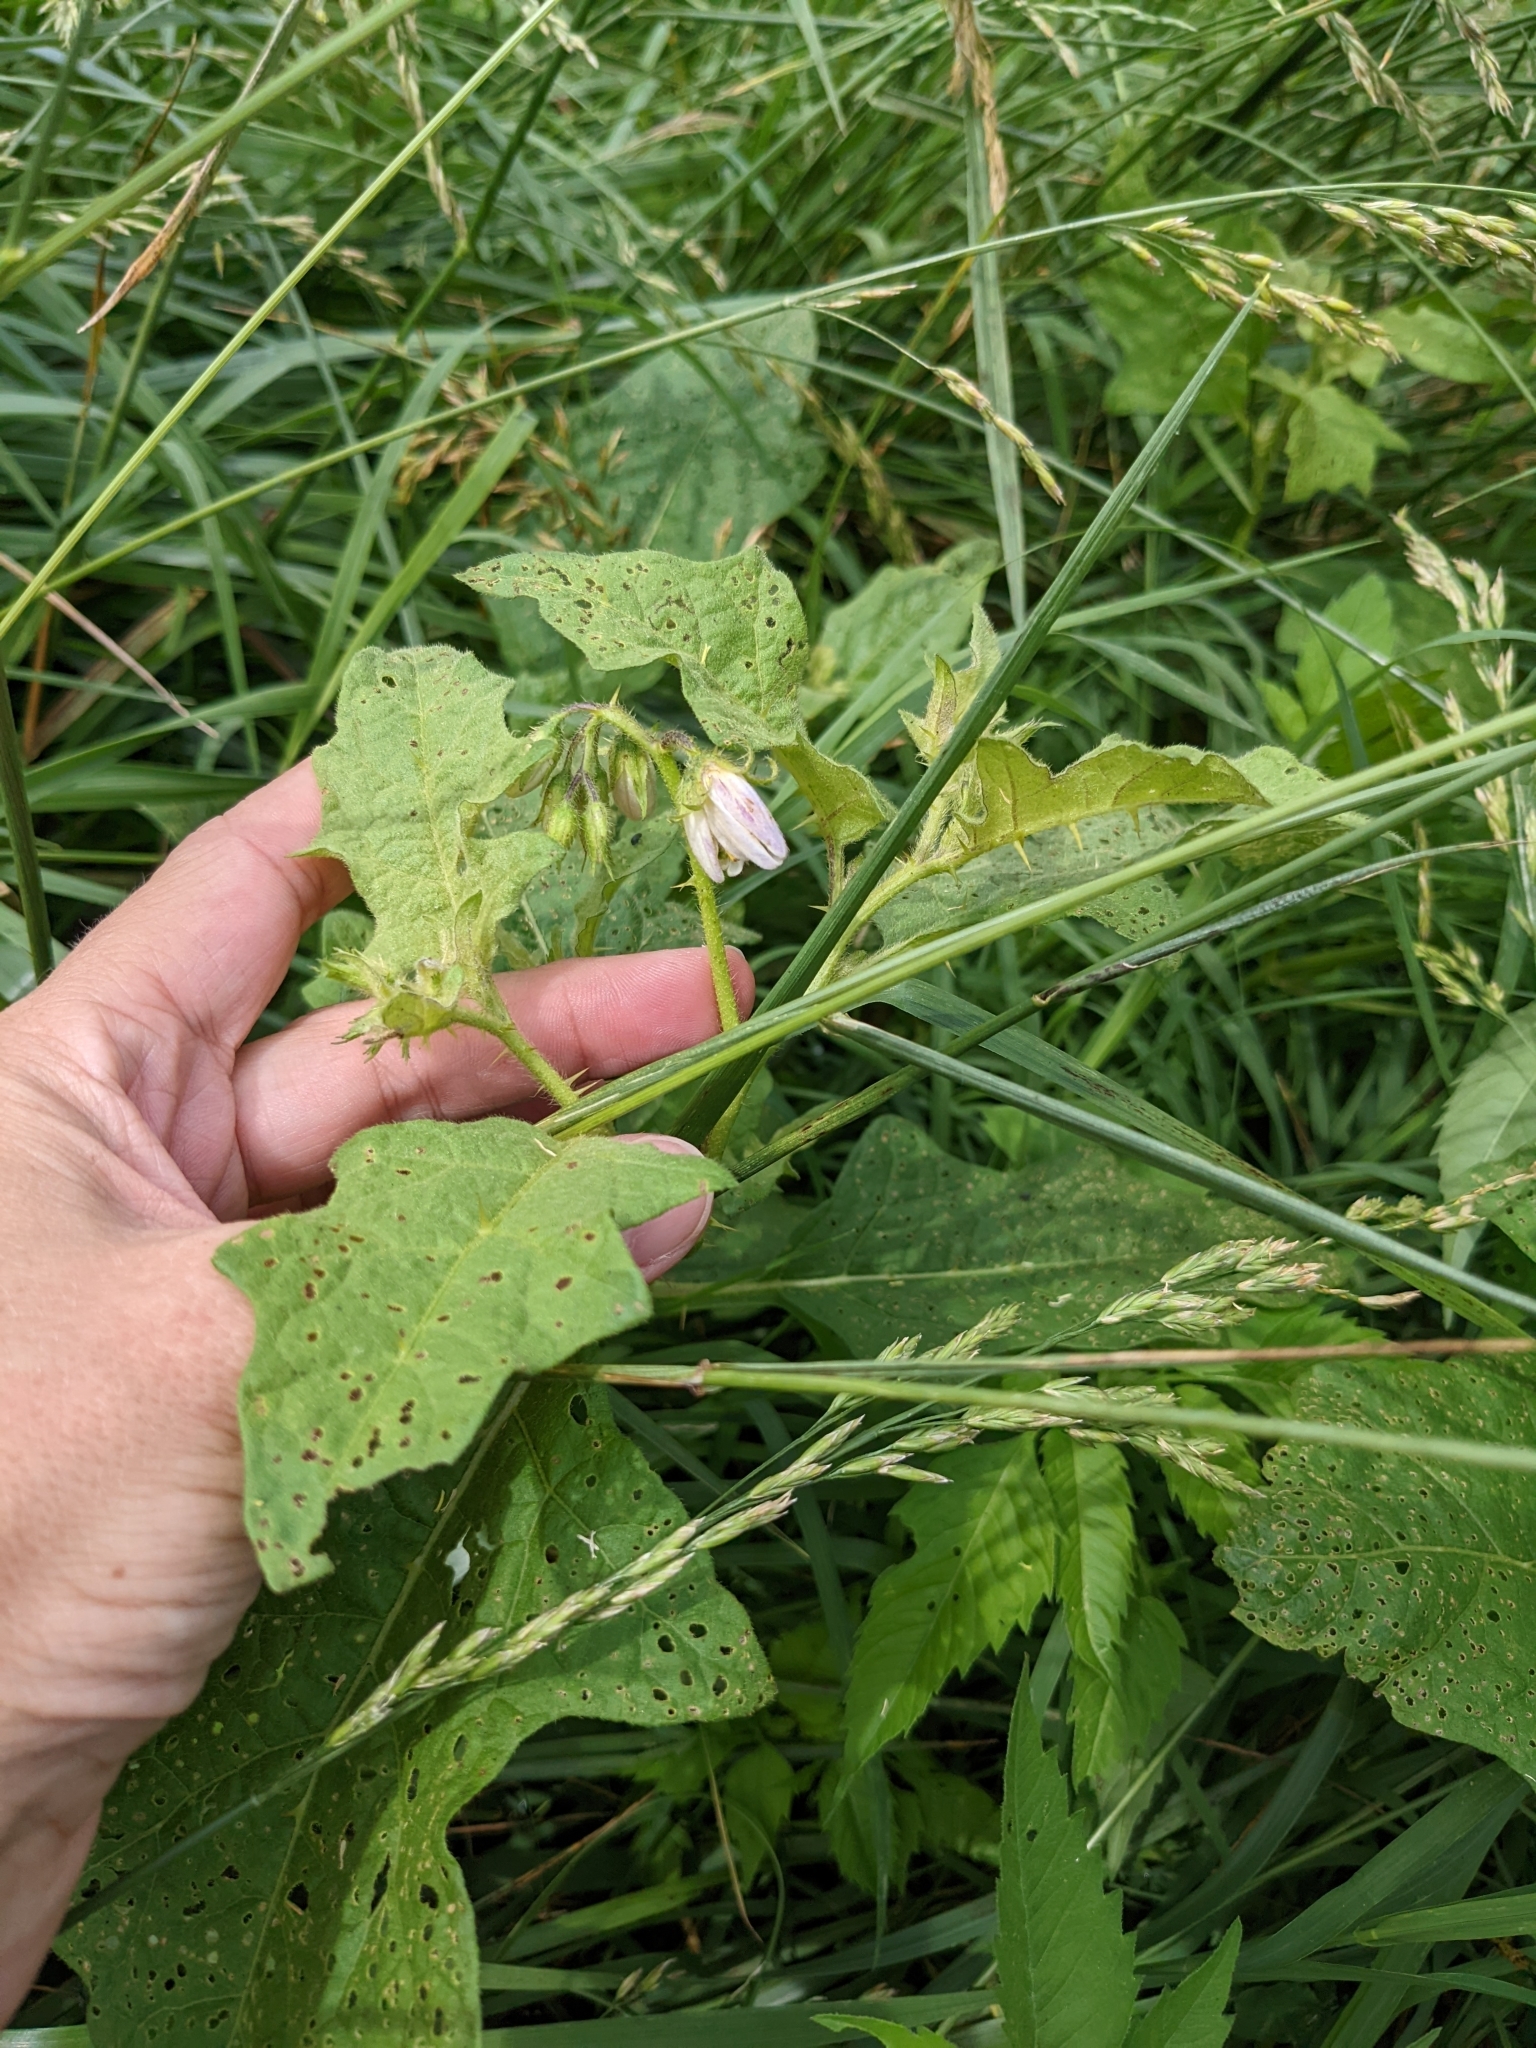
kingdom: Plantae
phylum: Tracheophyta
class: Magnoliopsida
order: Solanales
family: Solanaceae
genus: Solanum
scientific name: Solanum carolinense
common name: Horse-nettle
